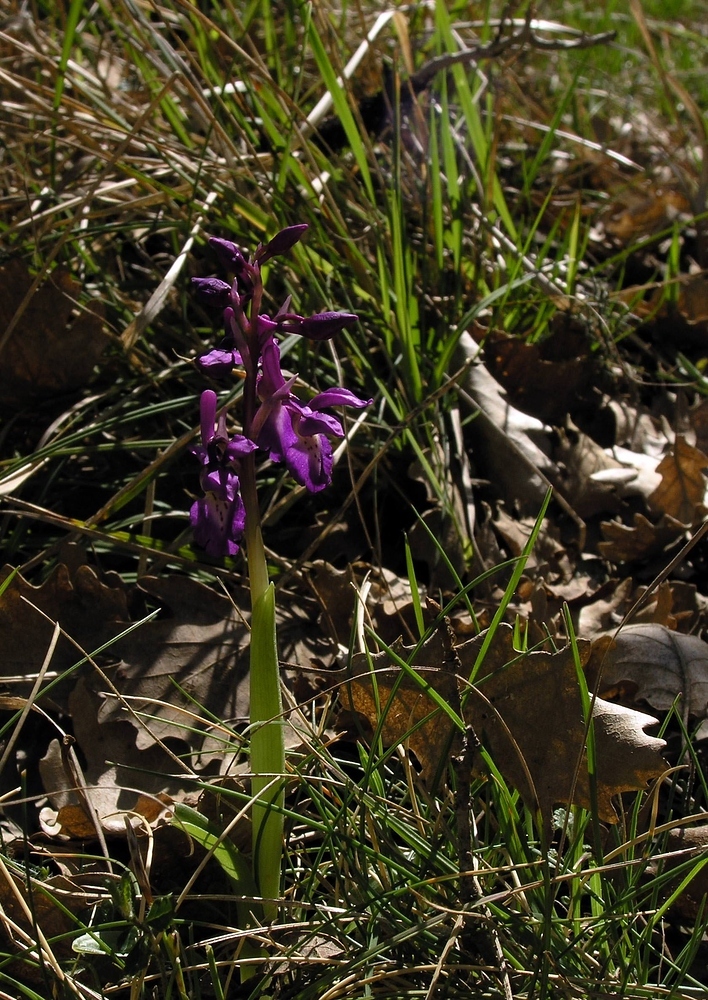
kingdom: Plantae
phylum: Tracheophyta
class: Liliopsida
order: Asparagales
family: Orchidaceae
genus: Orchis
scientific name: Orchis mascula
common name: Early-purple orchid
